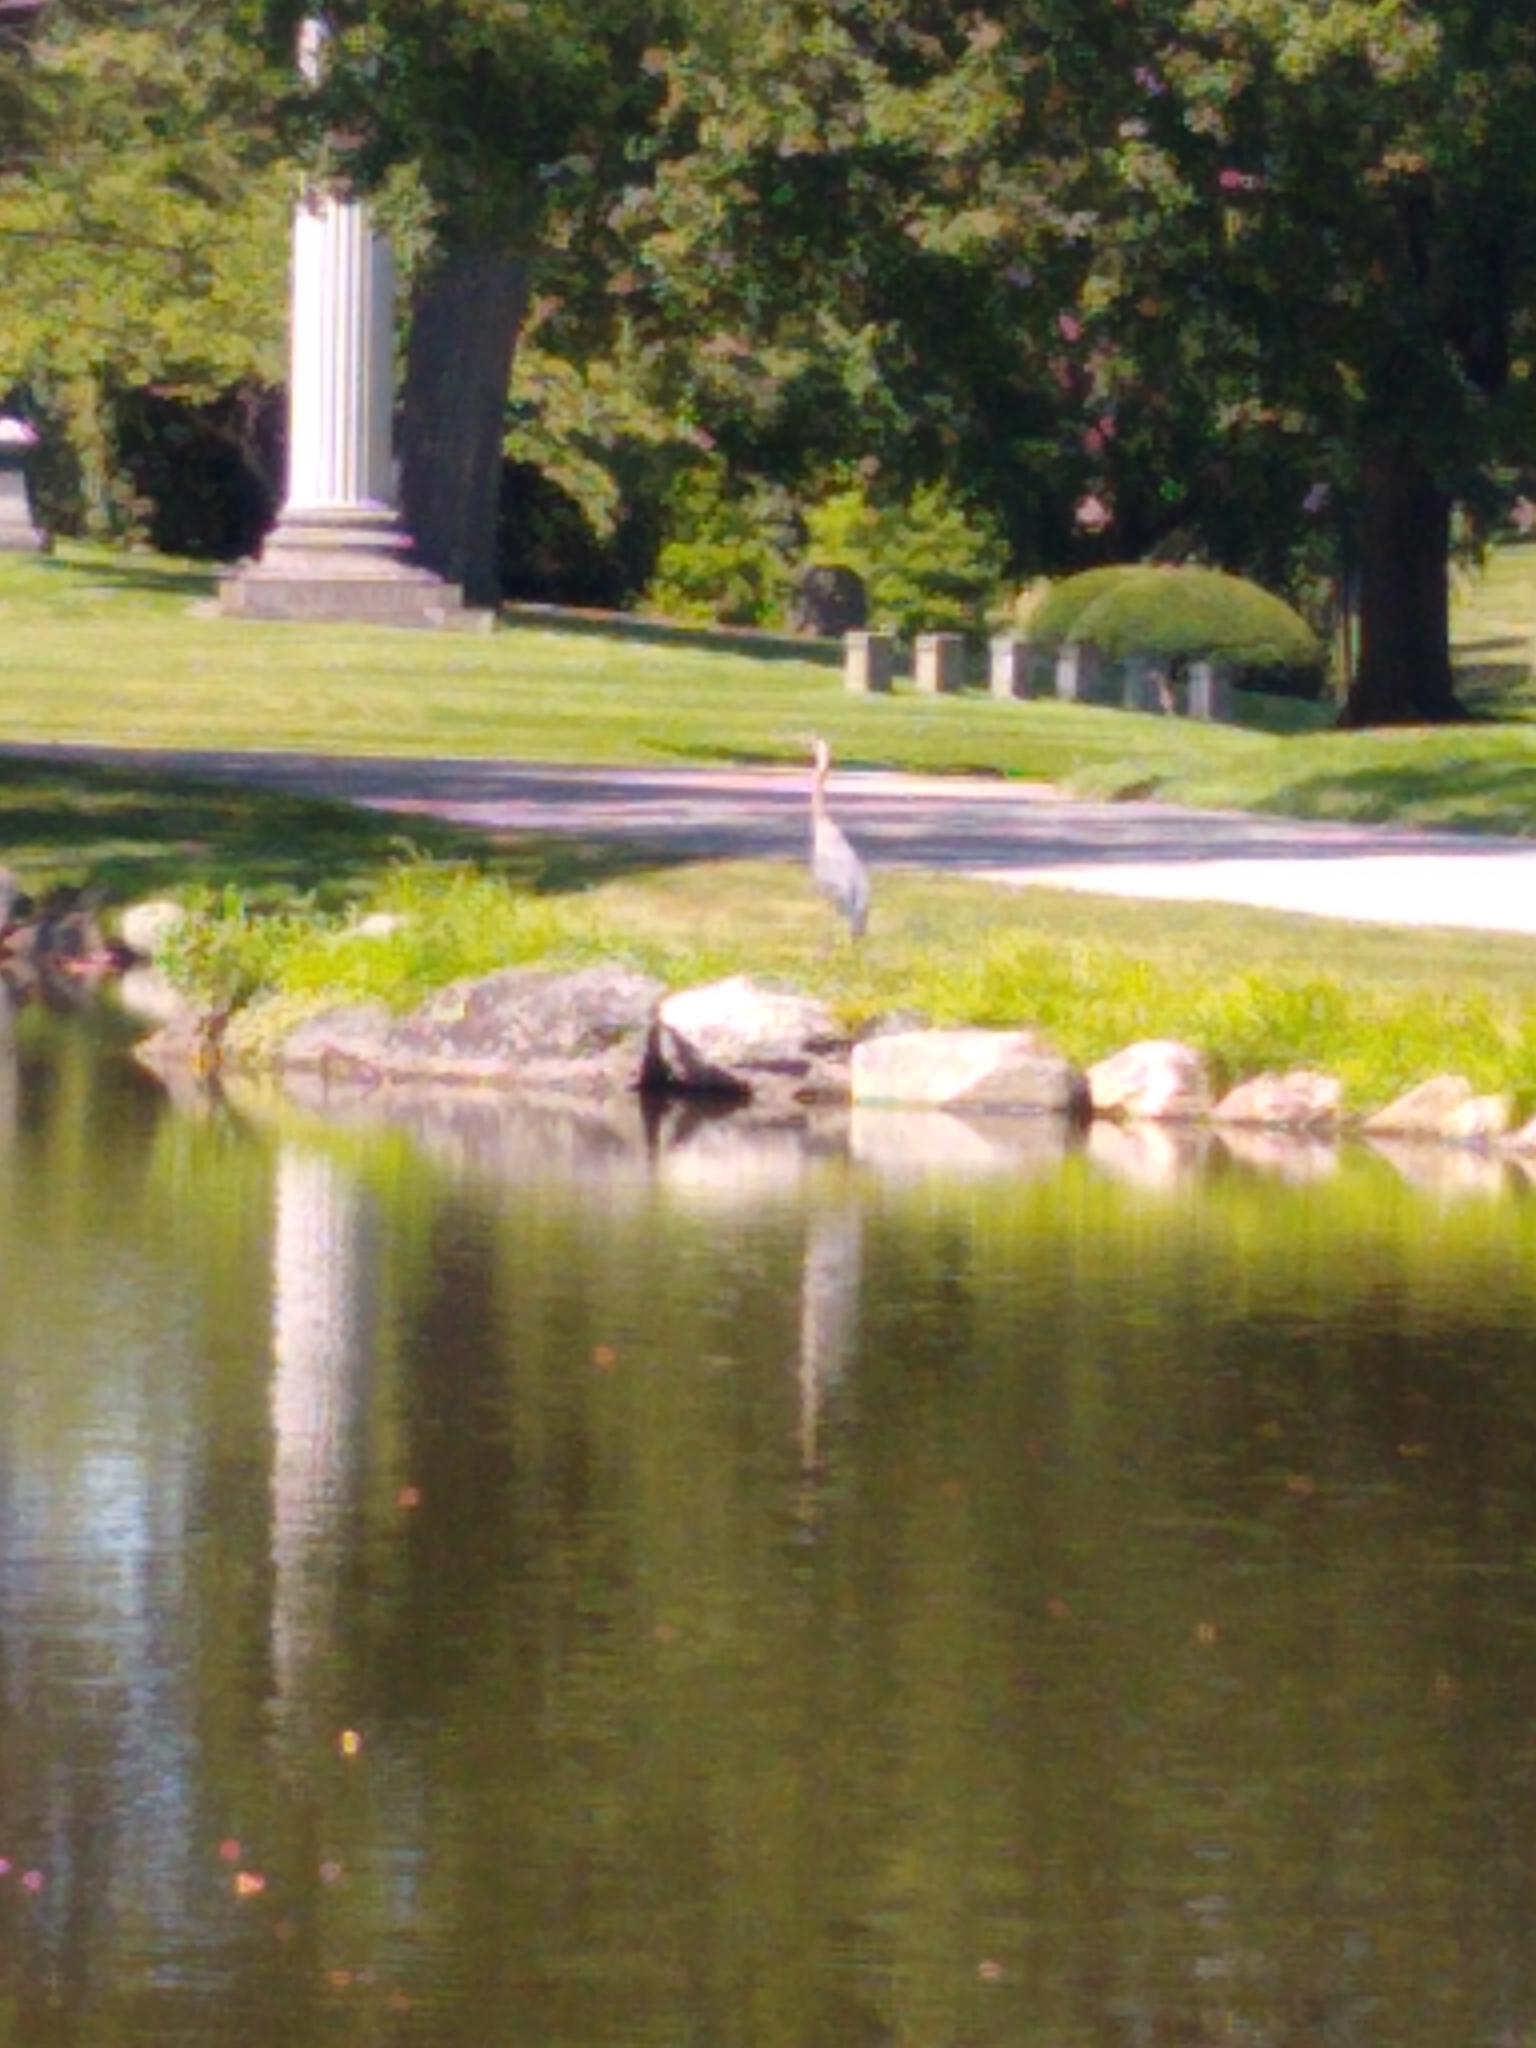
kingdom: Animalia
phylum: Chordata
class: Aves
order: Pelecaniformes
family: Ardeidae
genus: Ardea
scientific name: Ardea herodias
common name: Great blue heron
